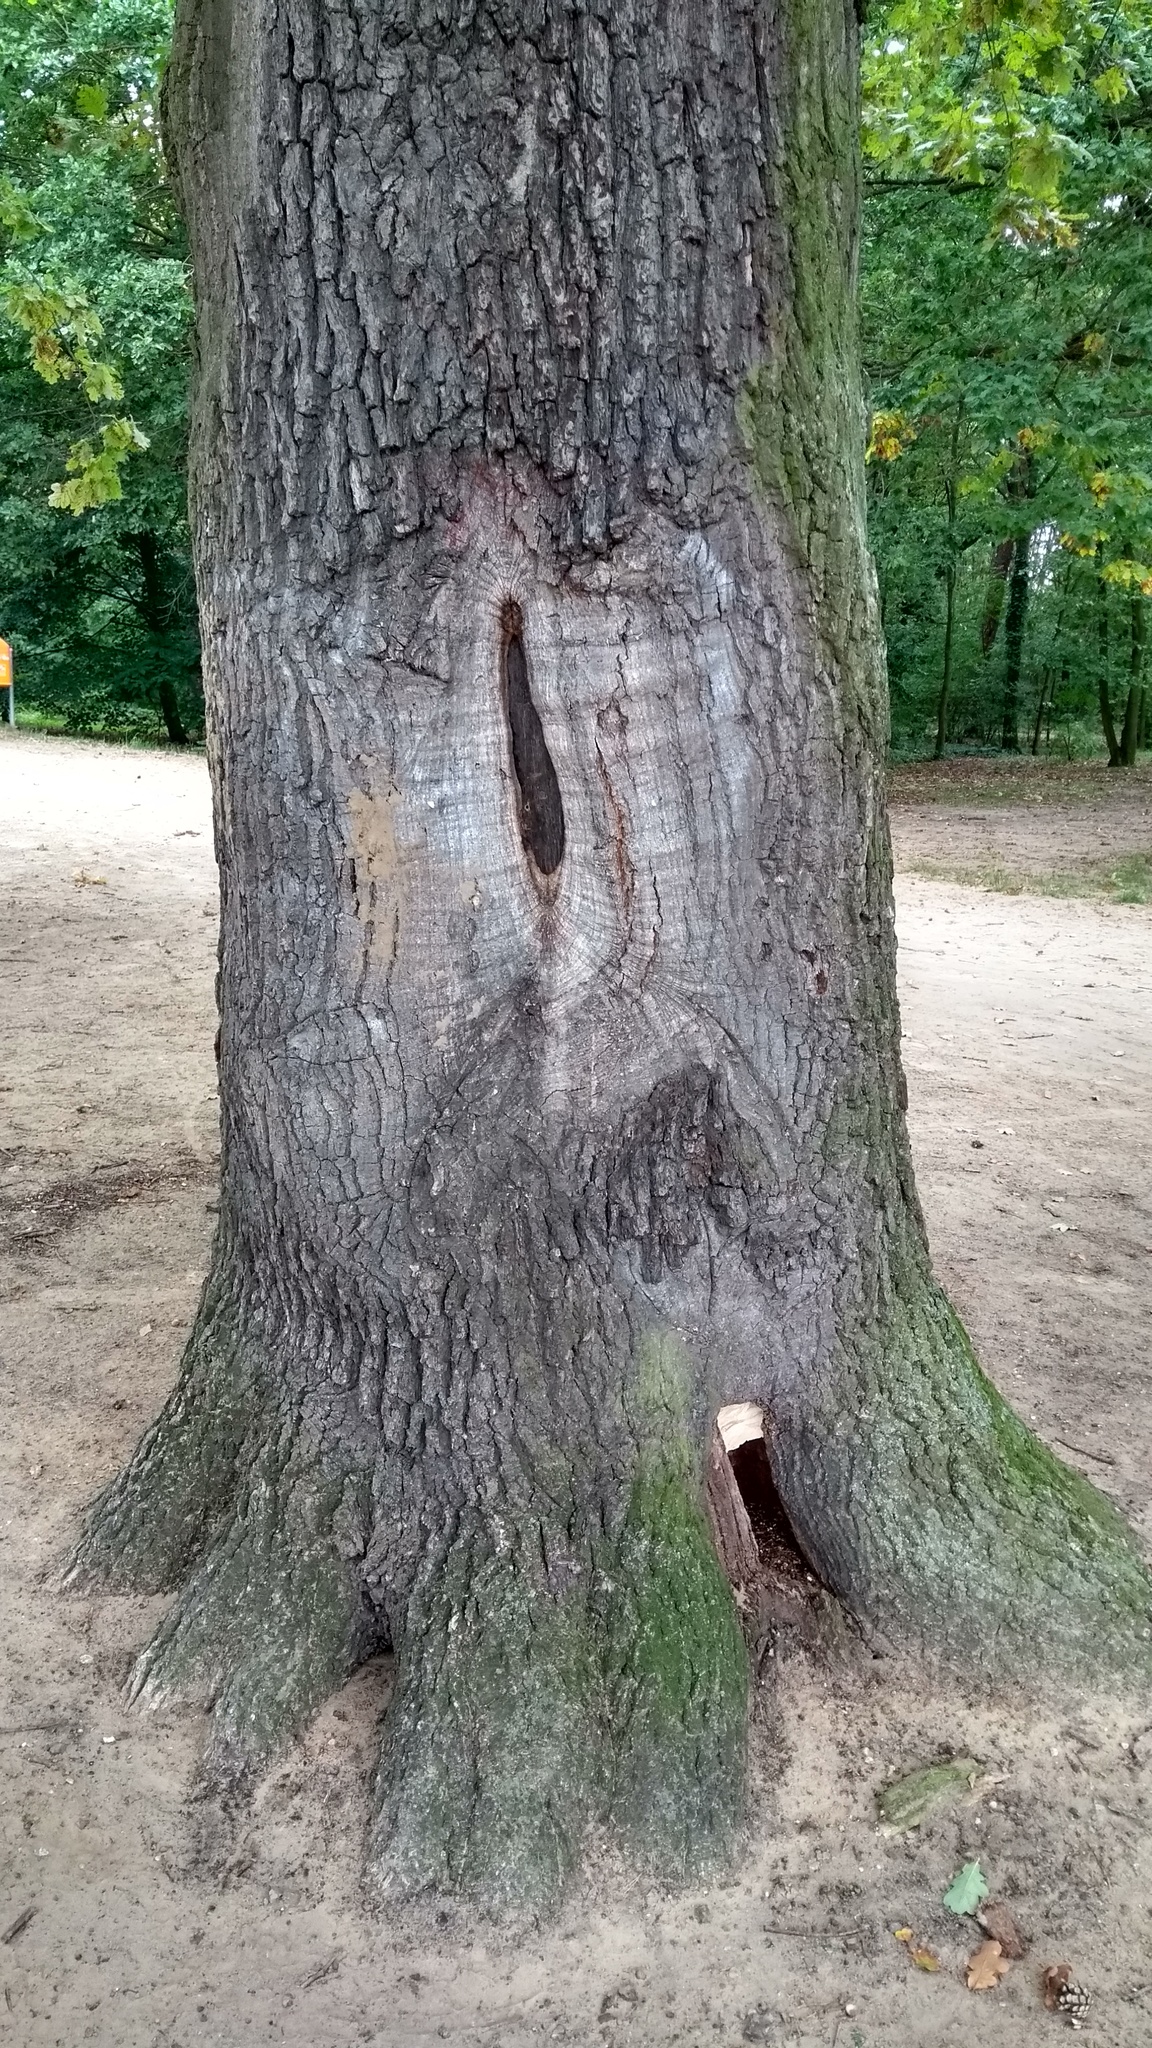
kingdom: Animalia
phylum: Arthropoda
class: Insecta
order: Hymenoptera
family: Vespidae
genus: Vespa
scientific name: Vespa crabro
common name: Hornet
